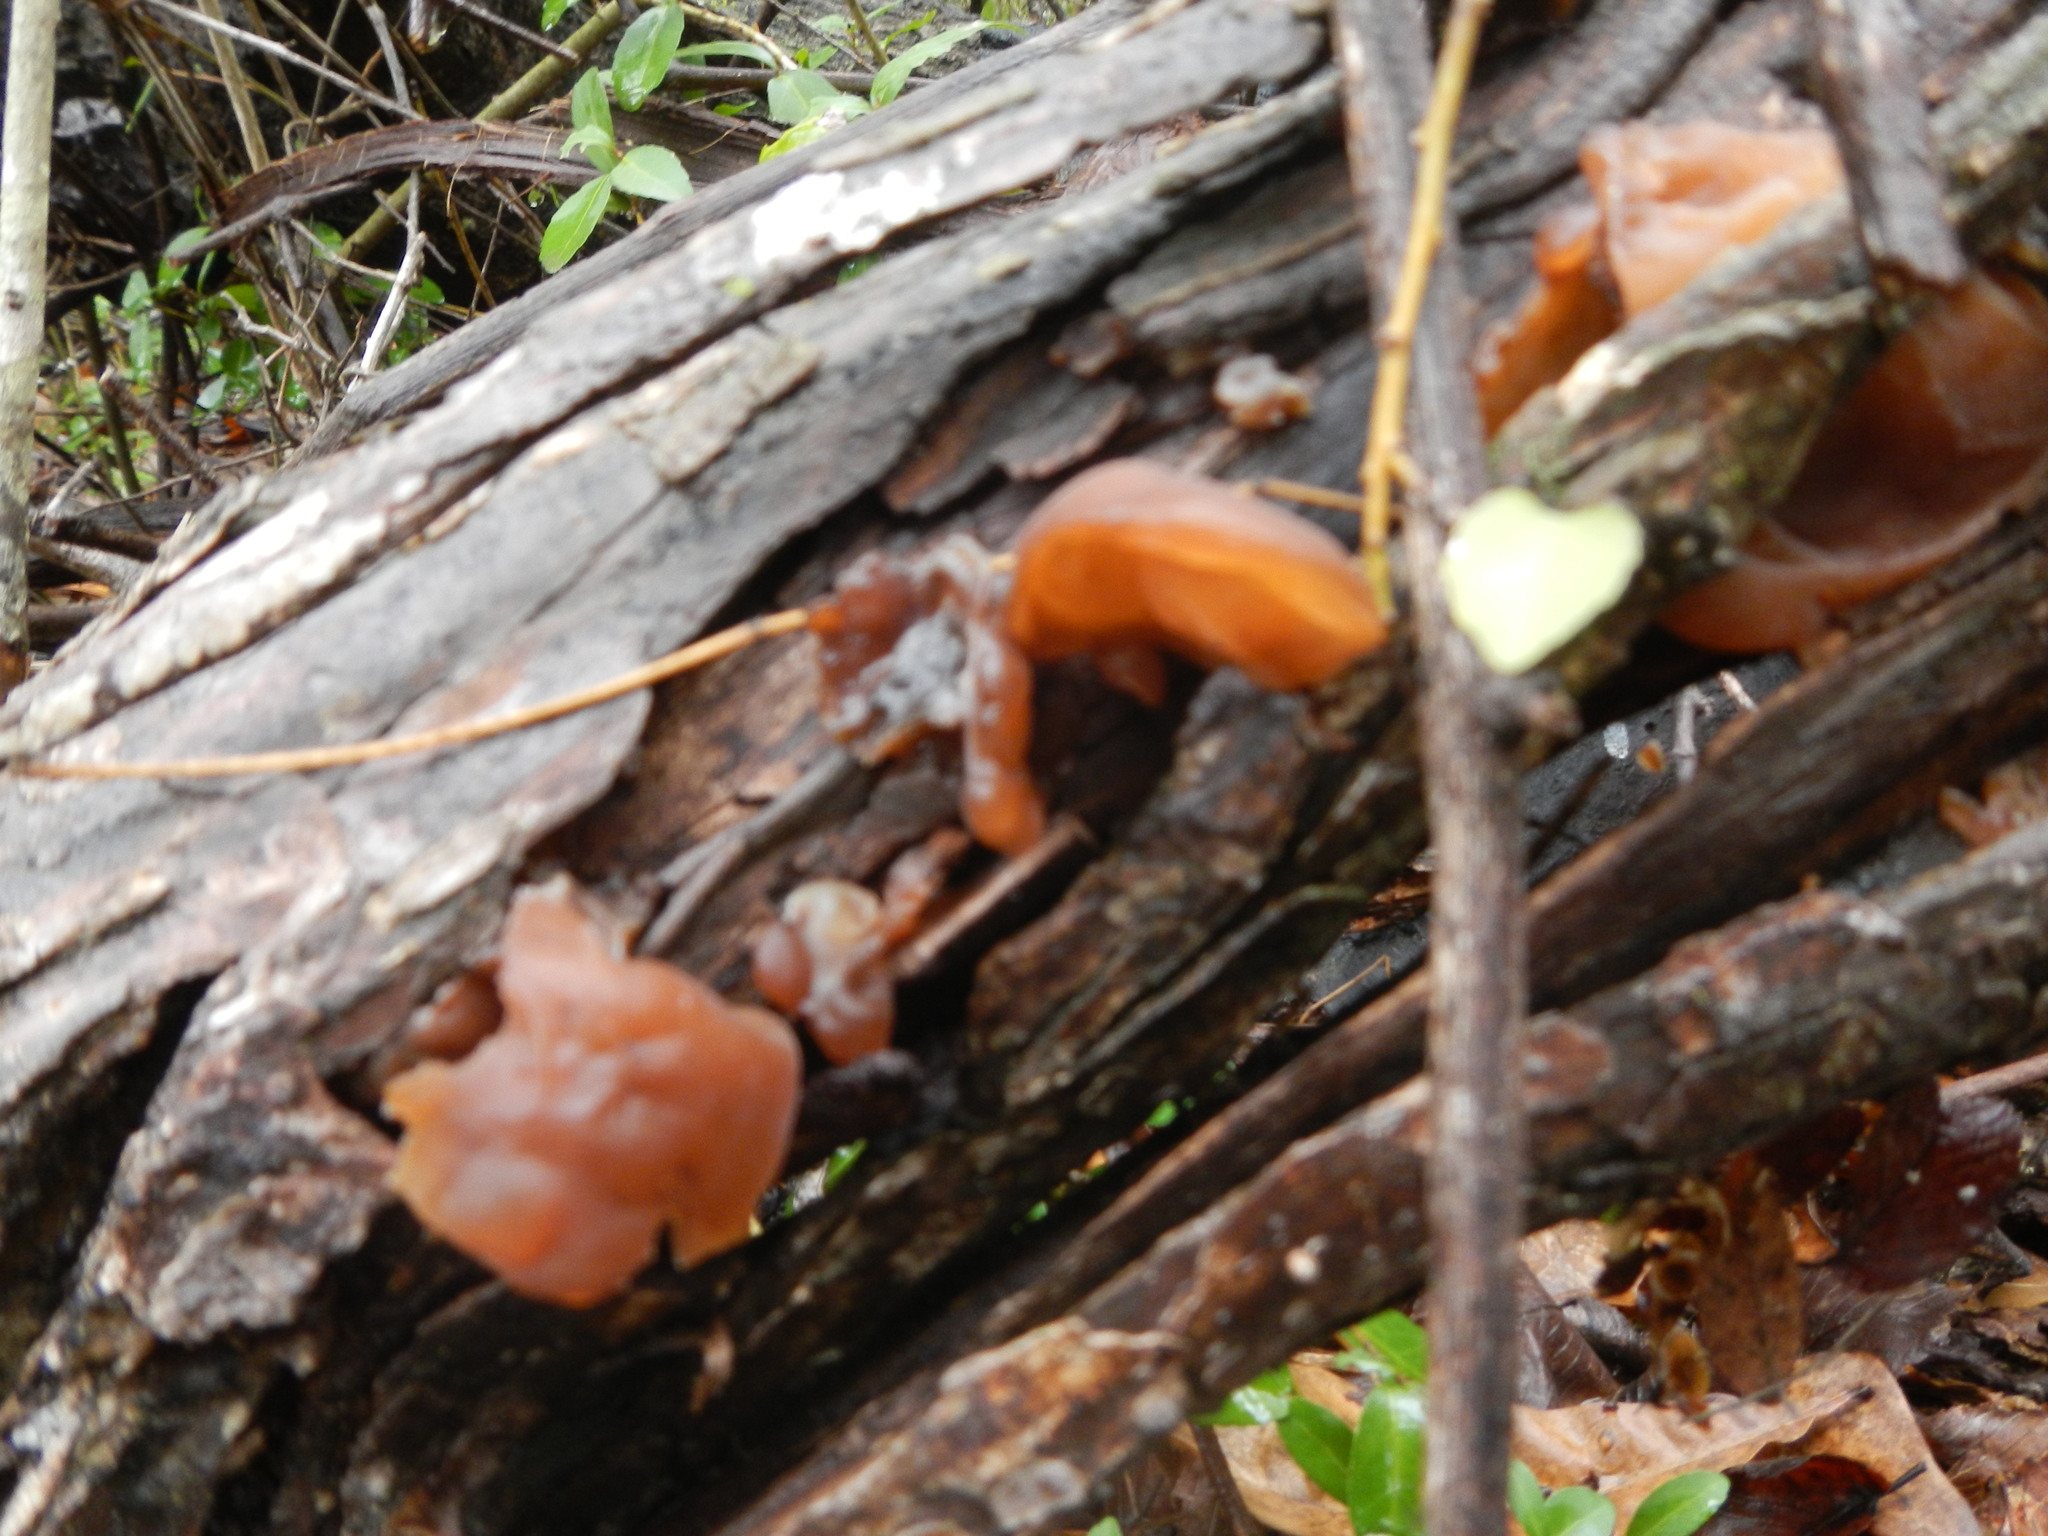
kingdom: Fungi
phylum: Basidiomycota
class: Agaricomycetes
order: Auriculariales
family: Auriculariaceae
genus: Auricularia
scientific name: Auricularia
